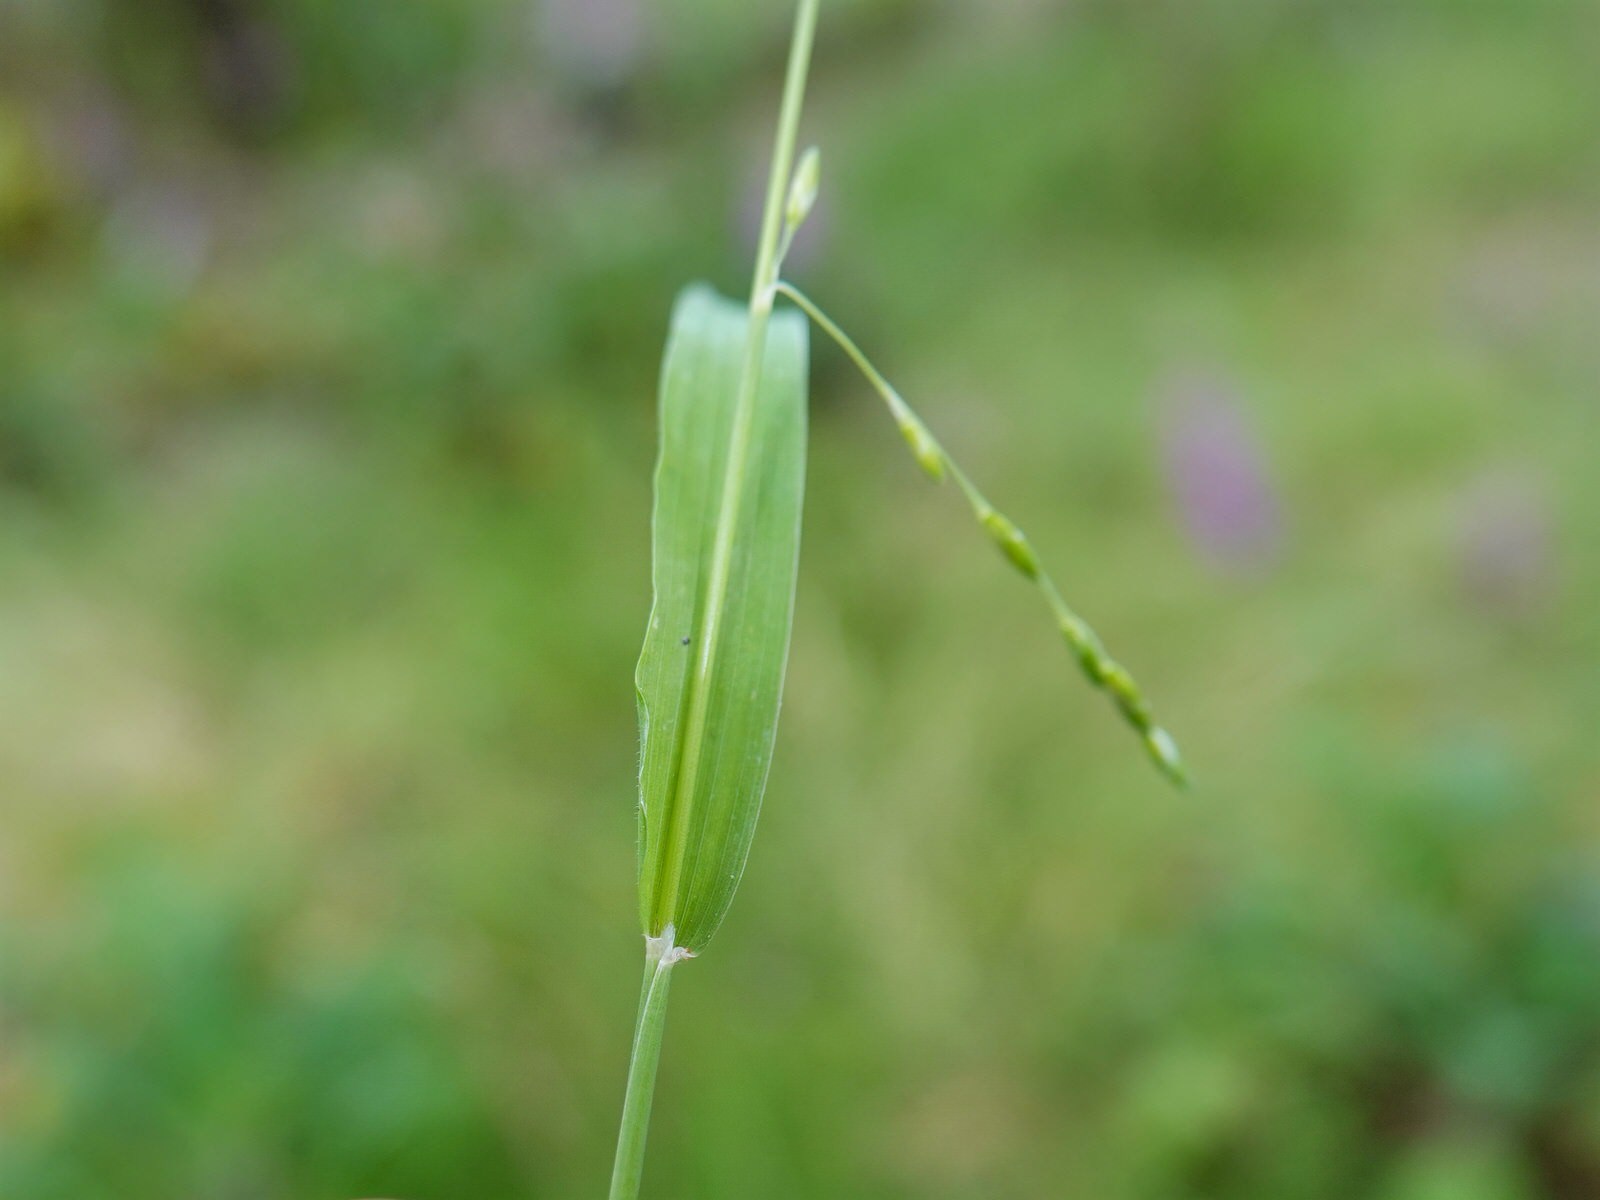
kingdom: Plantae
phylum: Tracheophyta
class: Liliopsida
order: Poales
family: Poaceae
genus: Ehrharta
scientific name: Ehrharta erecta
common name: Panic veldtgrass
